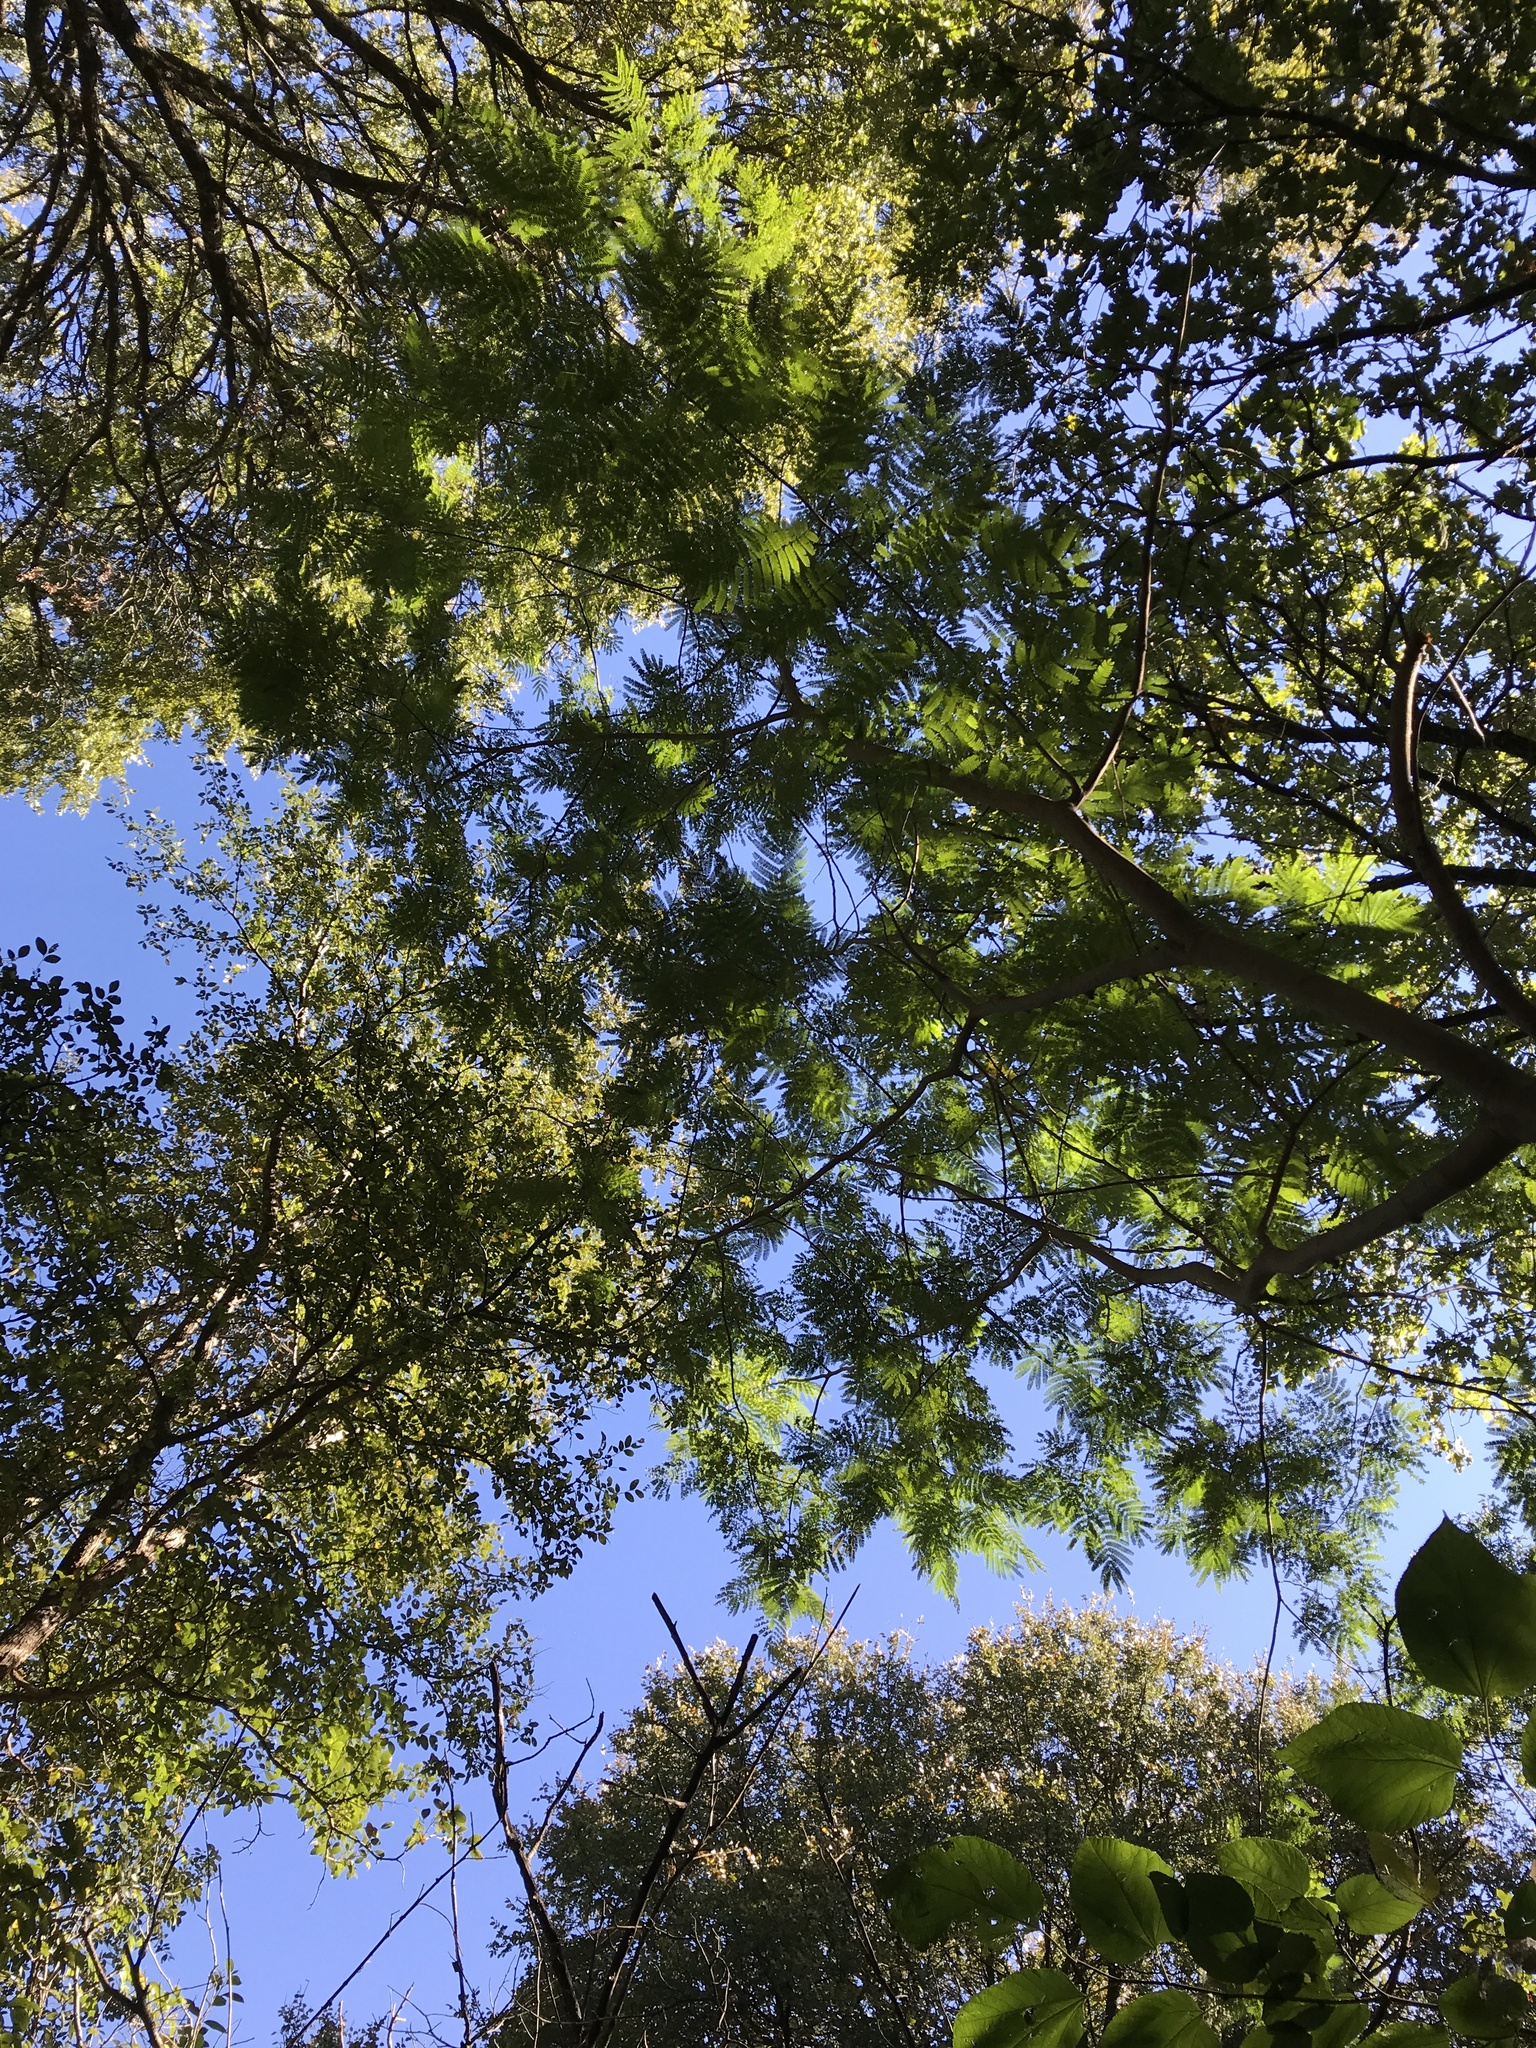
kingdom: Plantae
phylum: Tracheophyta
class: Magnoliopsida
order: Fabales
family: Fabaceae
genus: Albizia
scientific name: Albizia julibrissin
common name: Silktree
